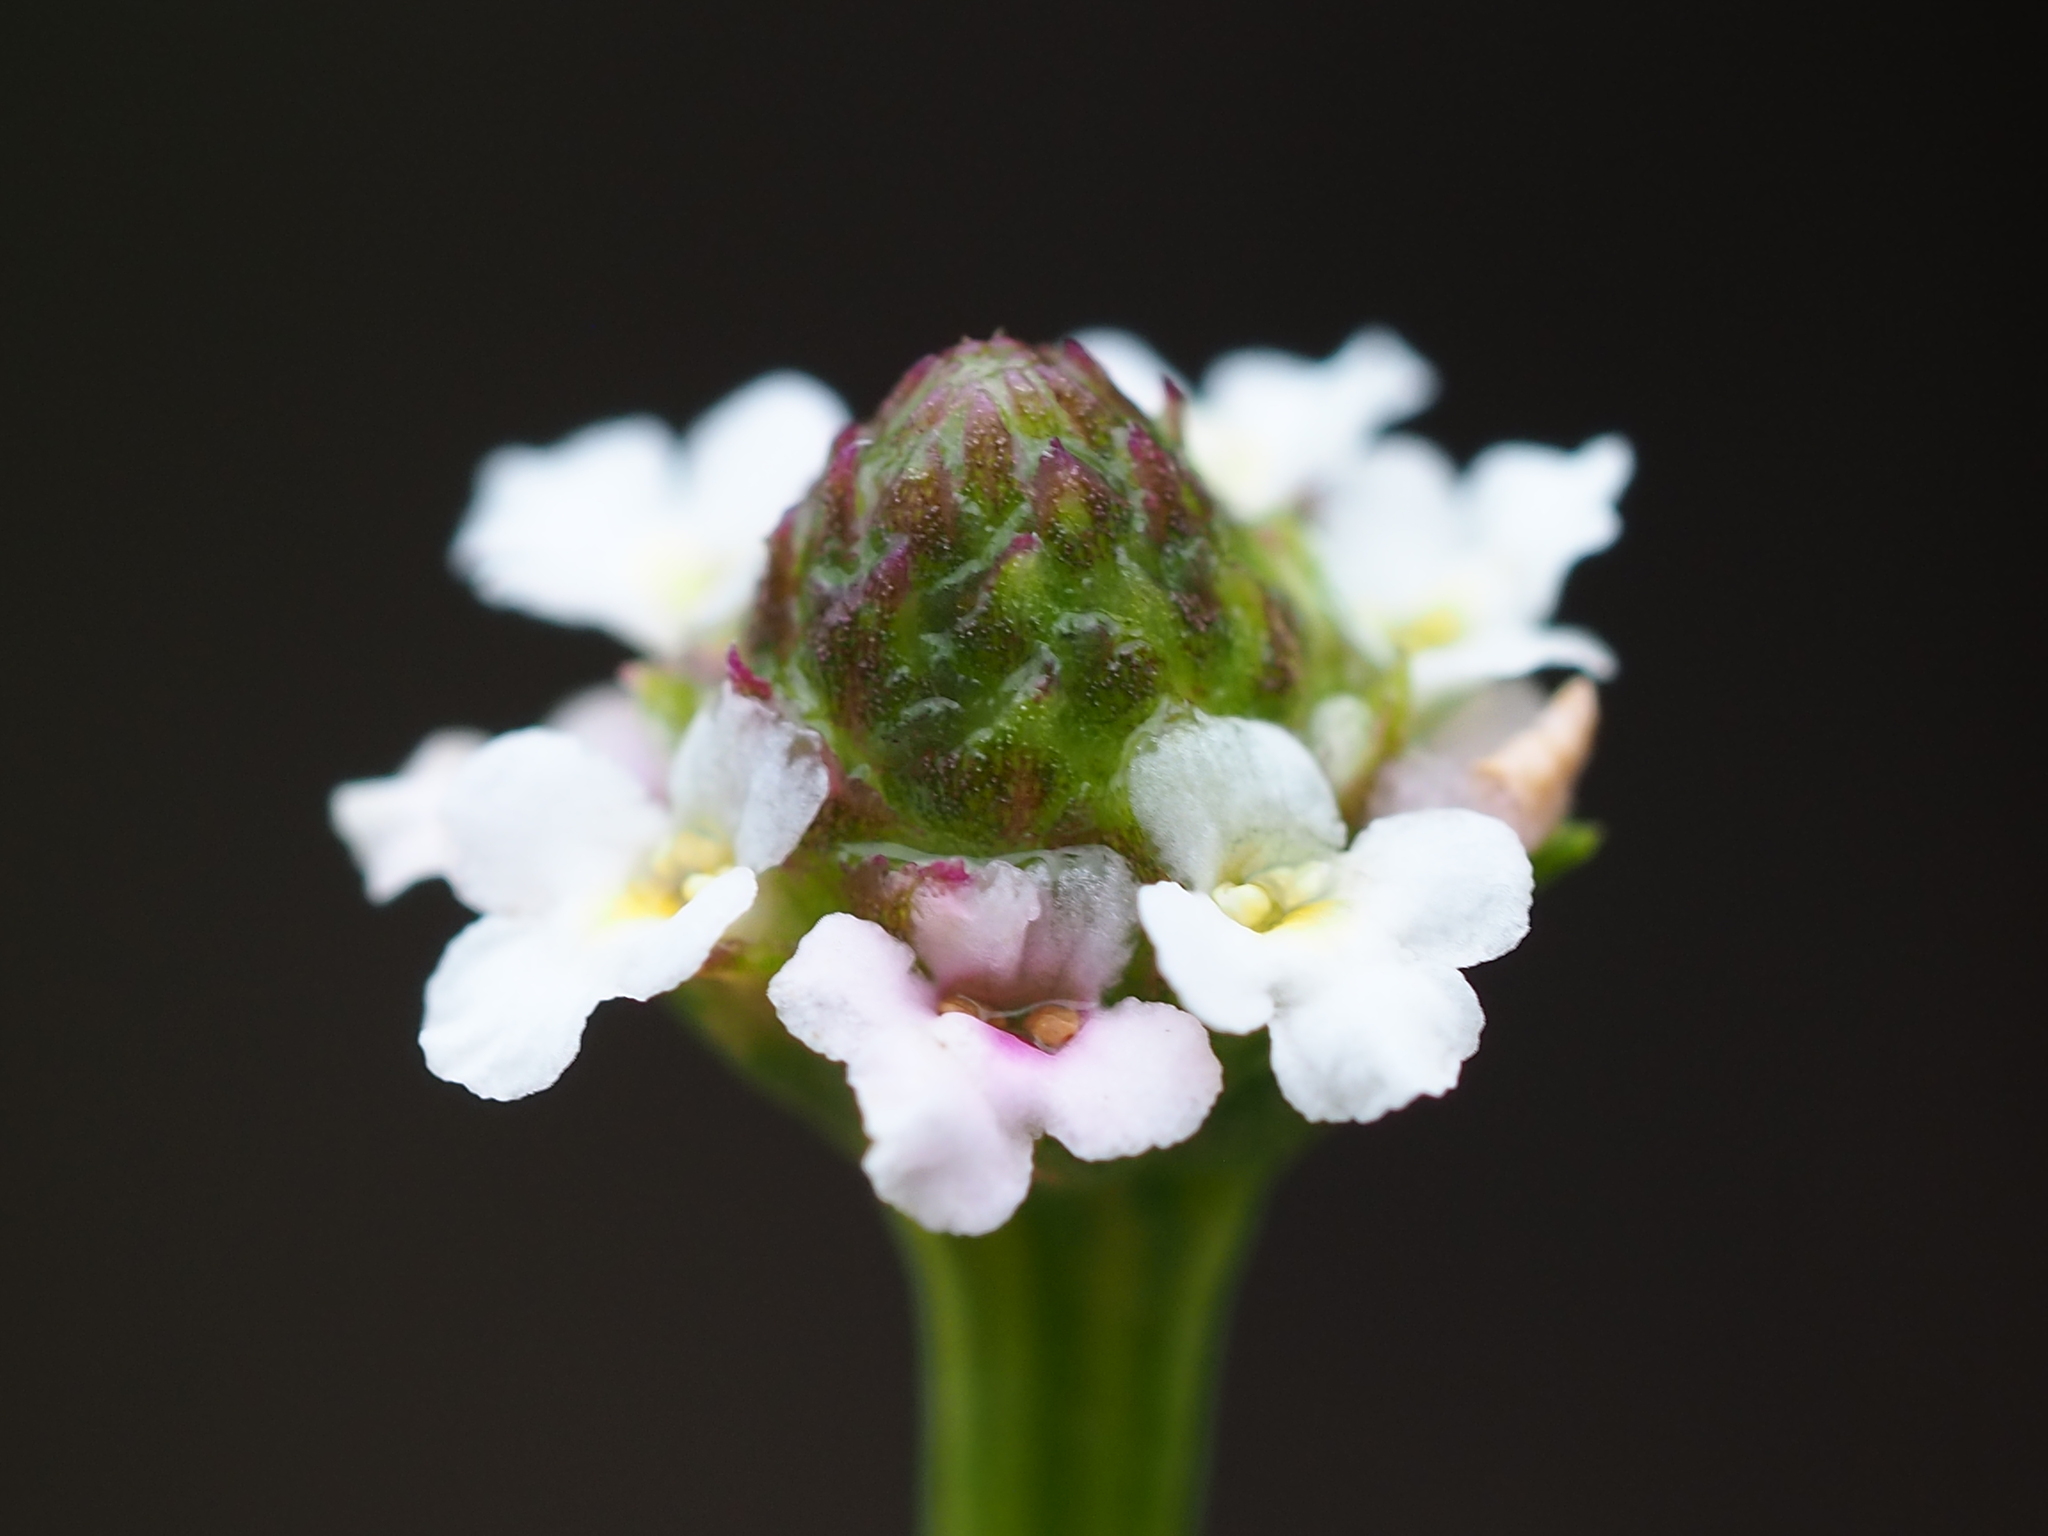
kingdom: Plantae
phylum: Tracheophyta
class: Magnoliopsida
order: Lamiales
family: Verbenaceae
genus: Phyla
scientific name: Phyla nodiflora
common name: Frogfruit
